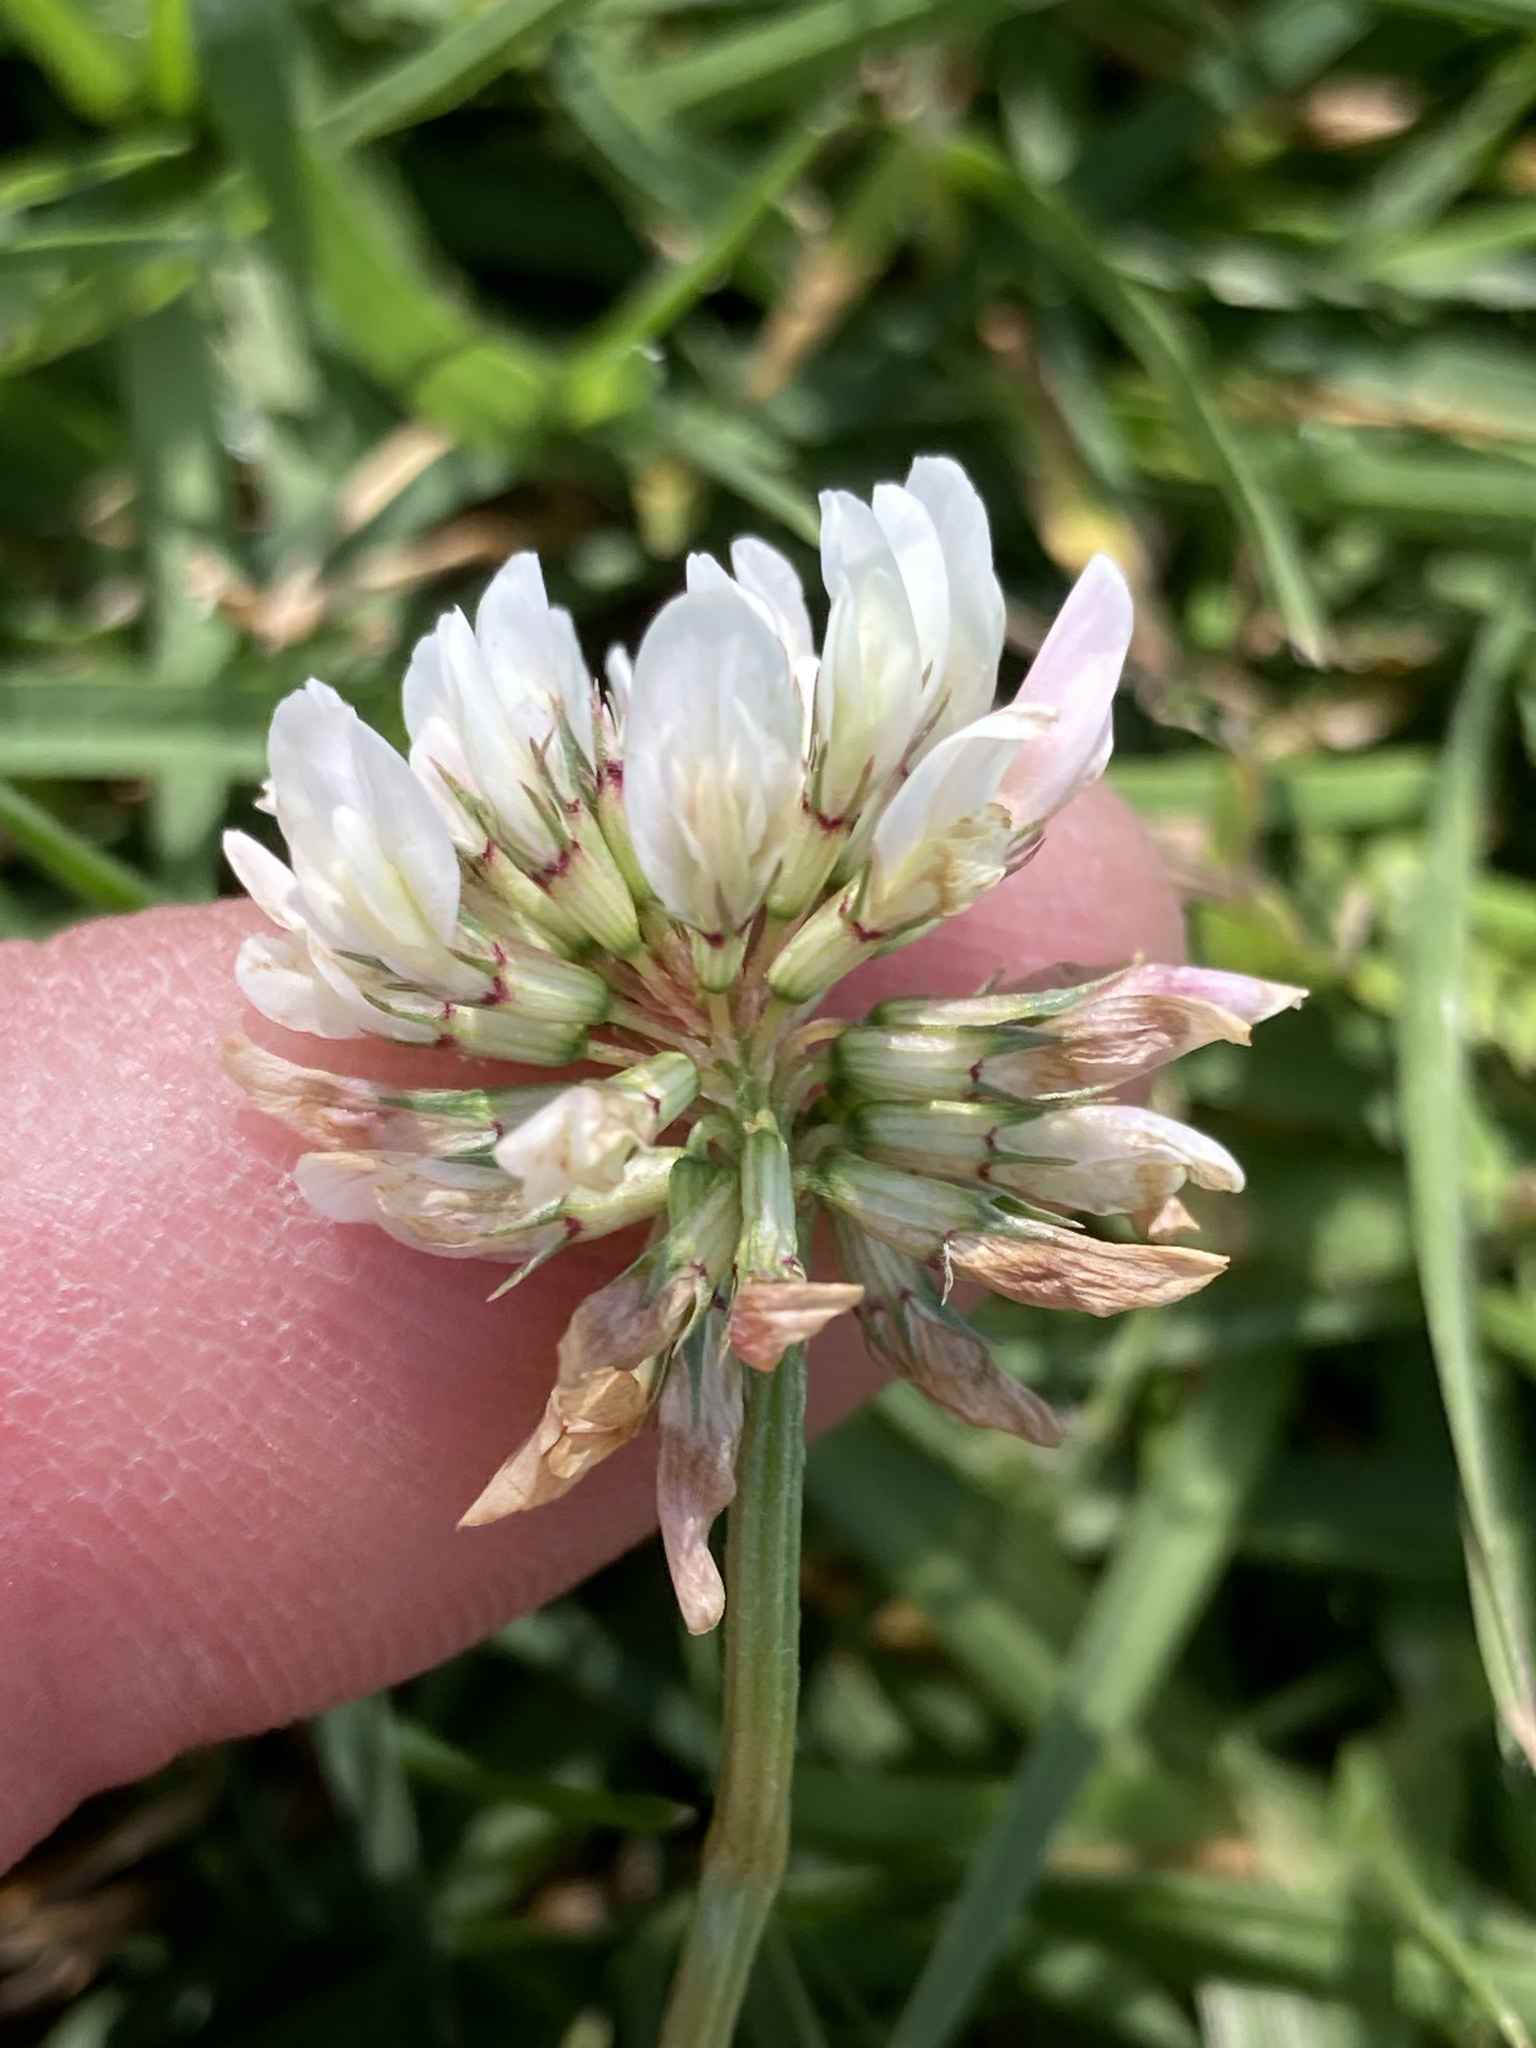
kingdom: Plantae
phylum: Tracheophyta
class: Magnoliopsida
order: Fabales
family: Fabaceae
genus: Trifolium
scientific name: Trifolium repens
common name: White clover
